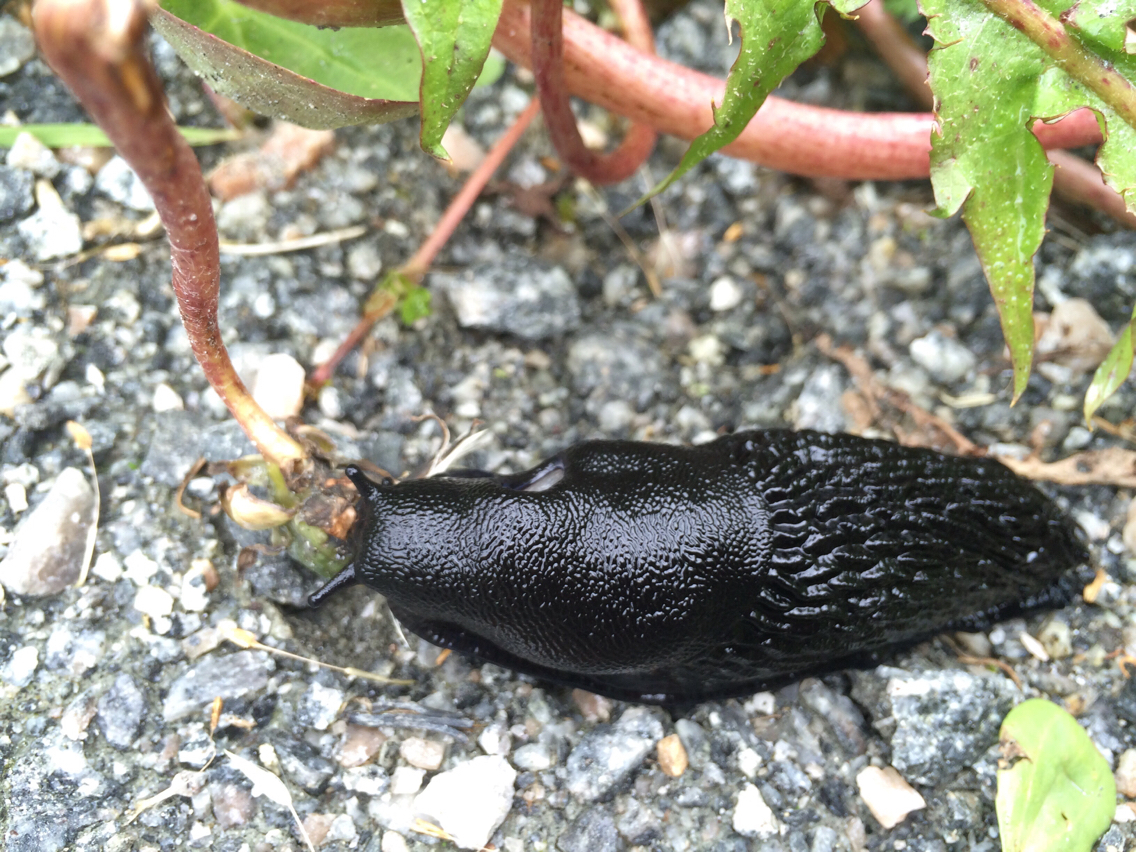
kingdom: Animalia
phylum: Mollusca
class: Gastropoda
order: Stylommatophora
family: Arionidae
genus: Arion
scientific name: Arion ater
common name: Black arion
